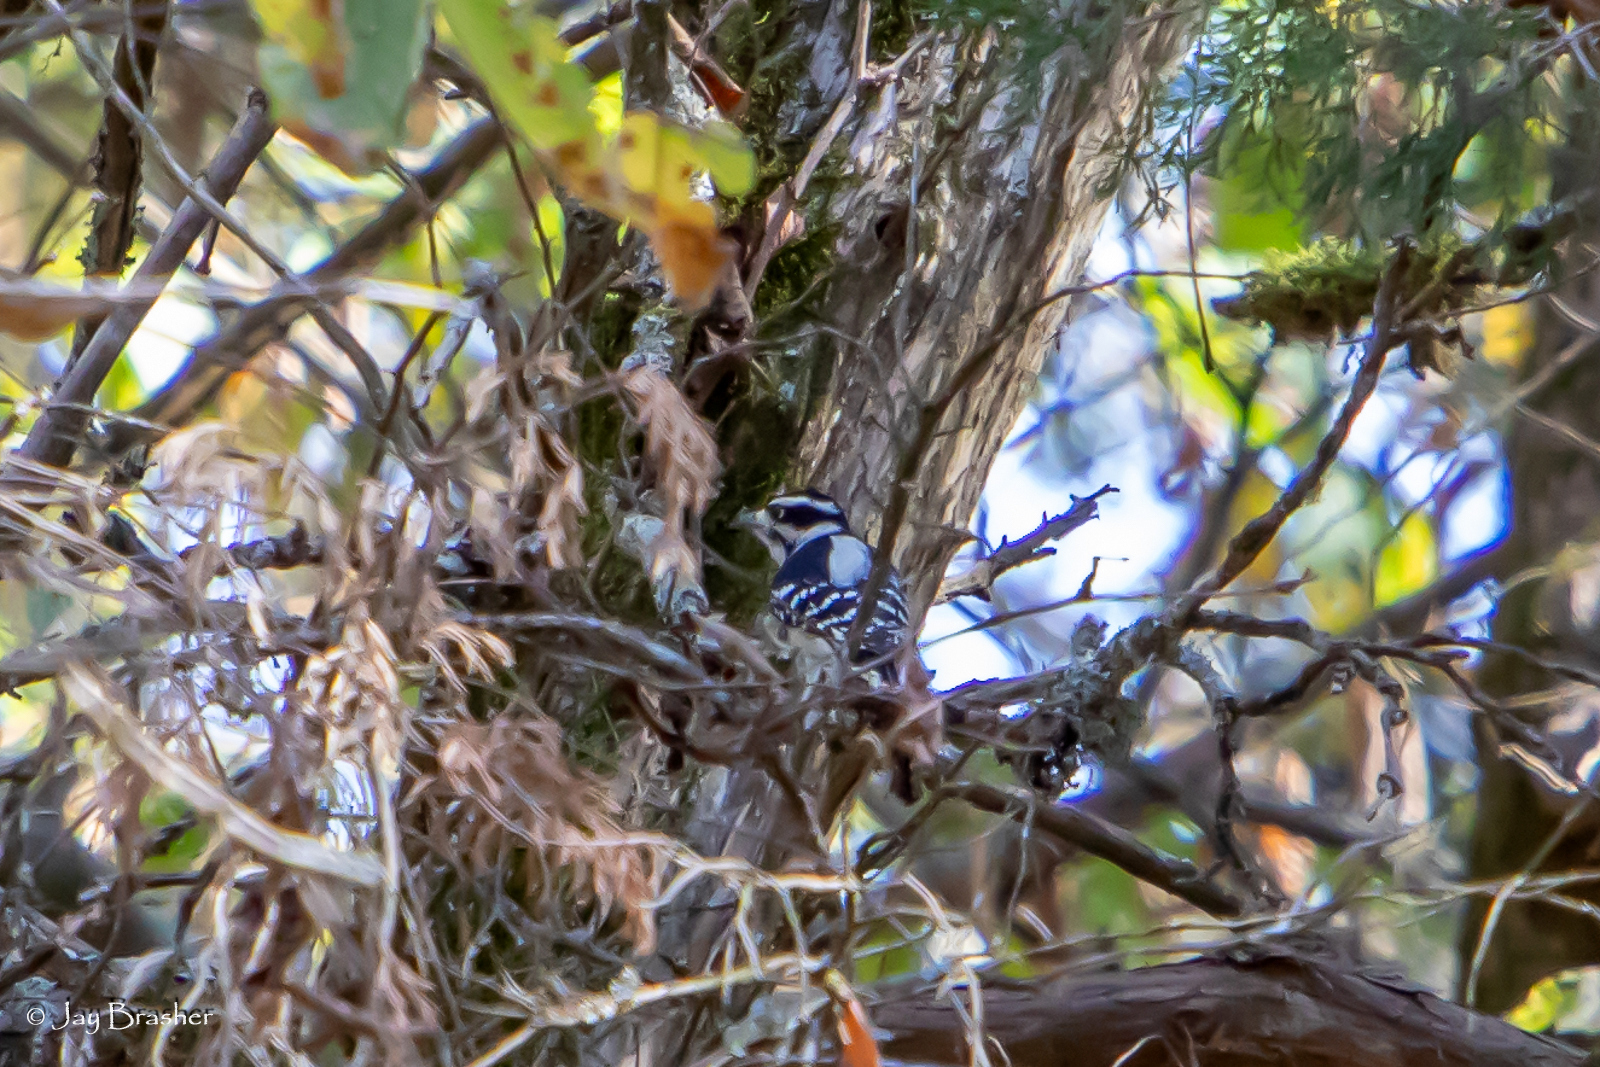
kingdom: Animalia
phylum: Chordata
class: Aves
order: Piciformes
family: Picidae
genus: Dryobates
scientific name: Dryobates pubescens
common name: Downy woodpecker
